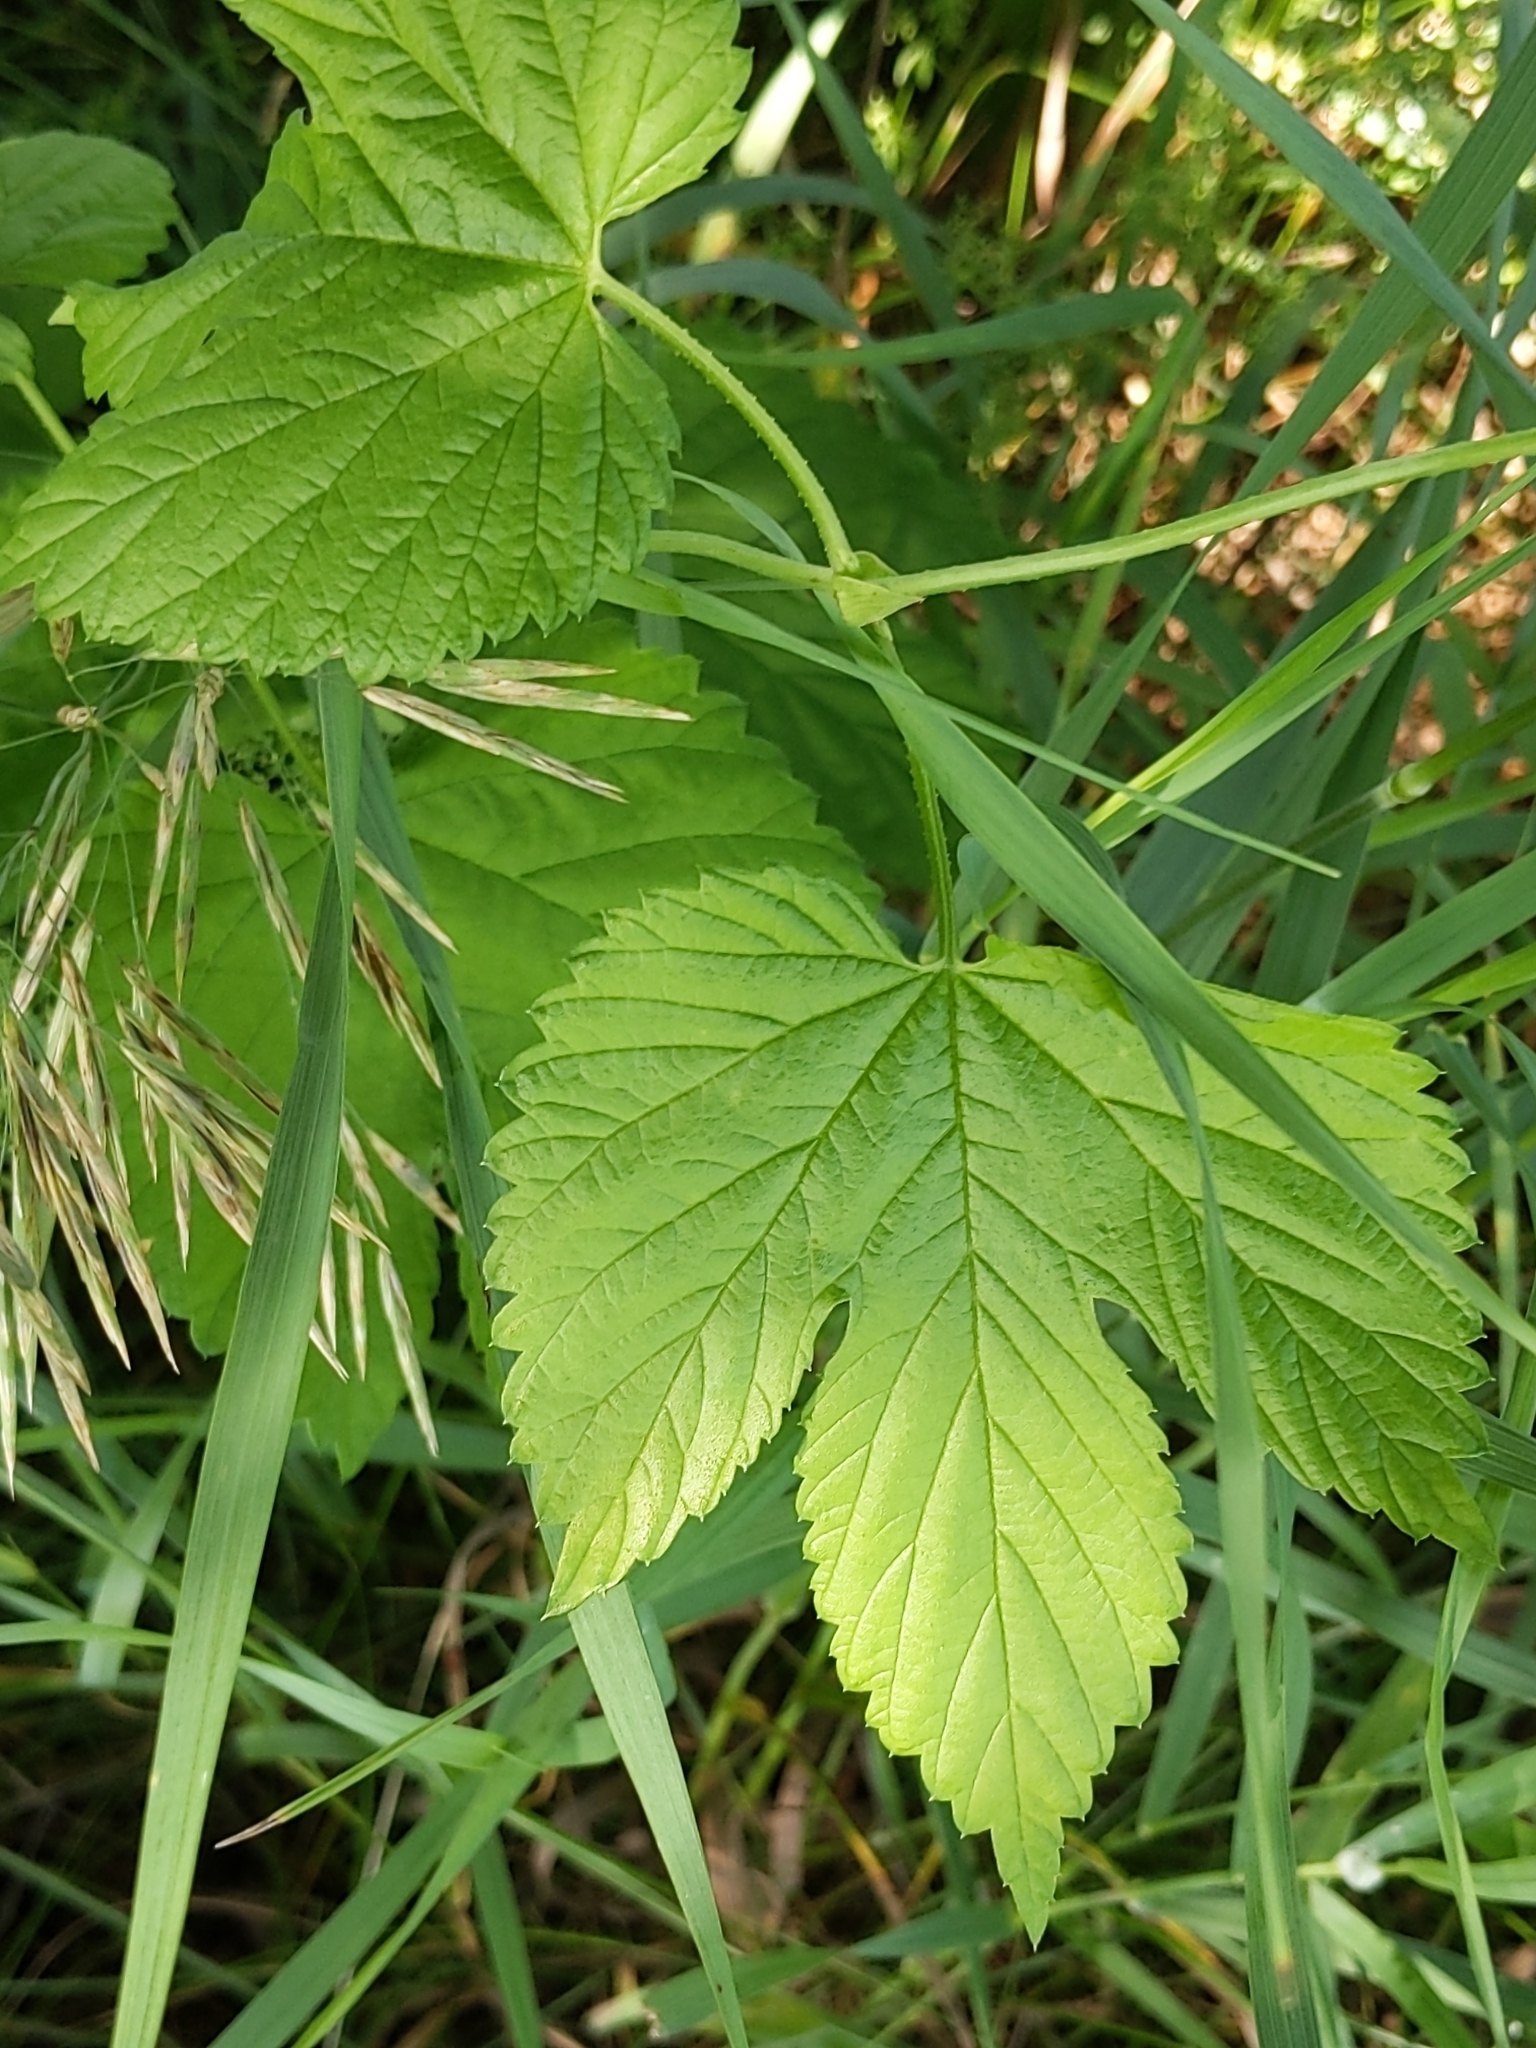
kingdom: Plantae
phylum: Tracheophyta
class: Magnoliopsida
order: Rosales
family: Cannabaceae
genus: Humulus
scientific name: Humulus lupulus
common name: Hop
